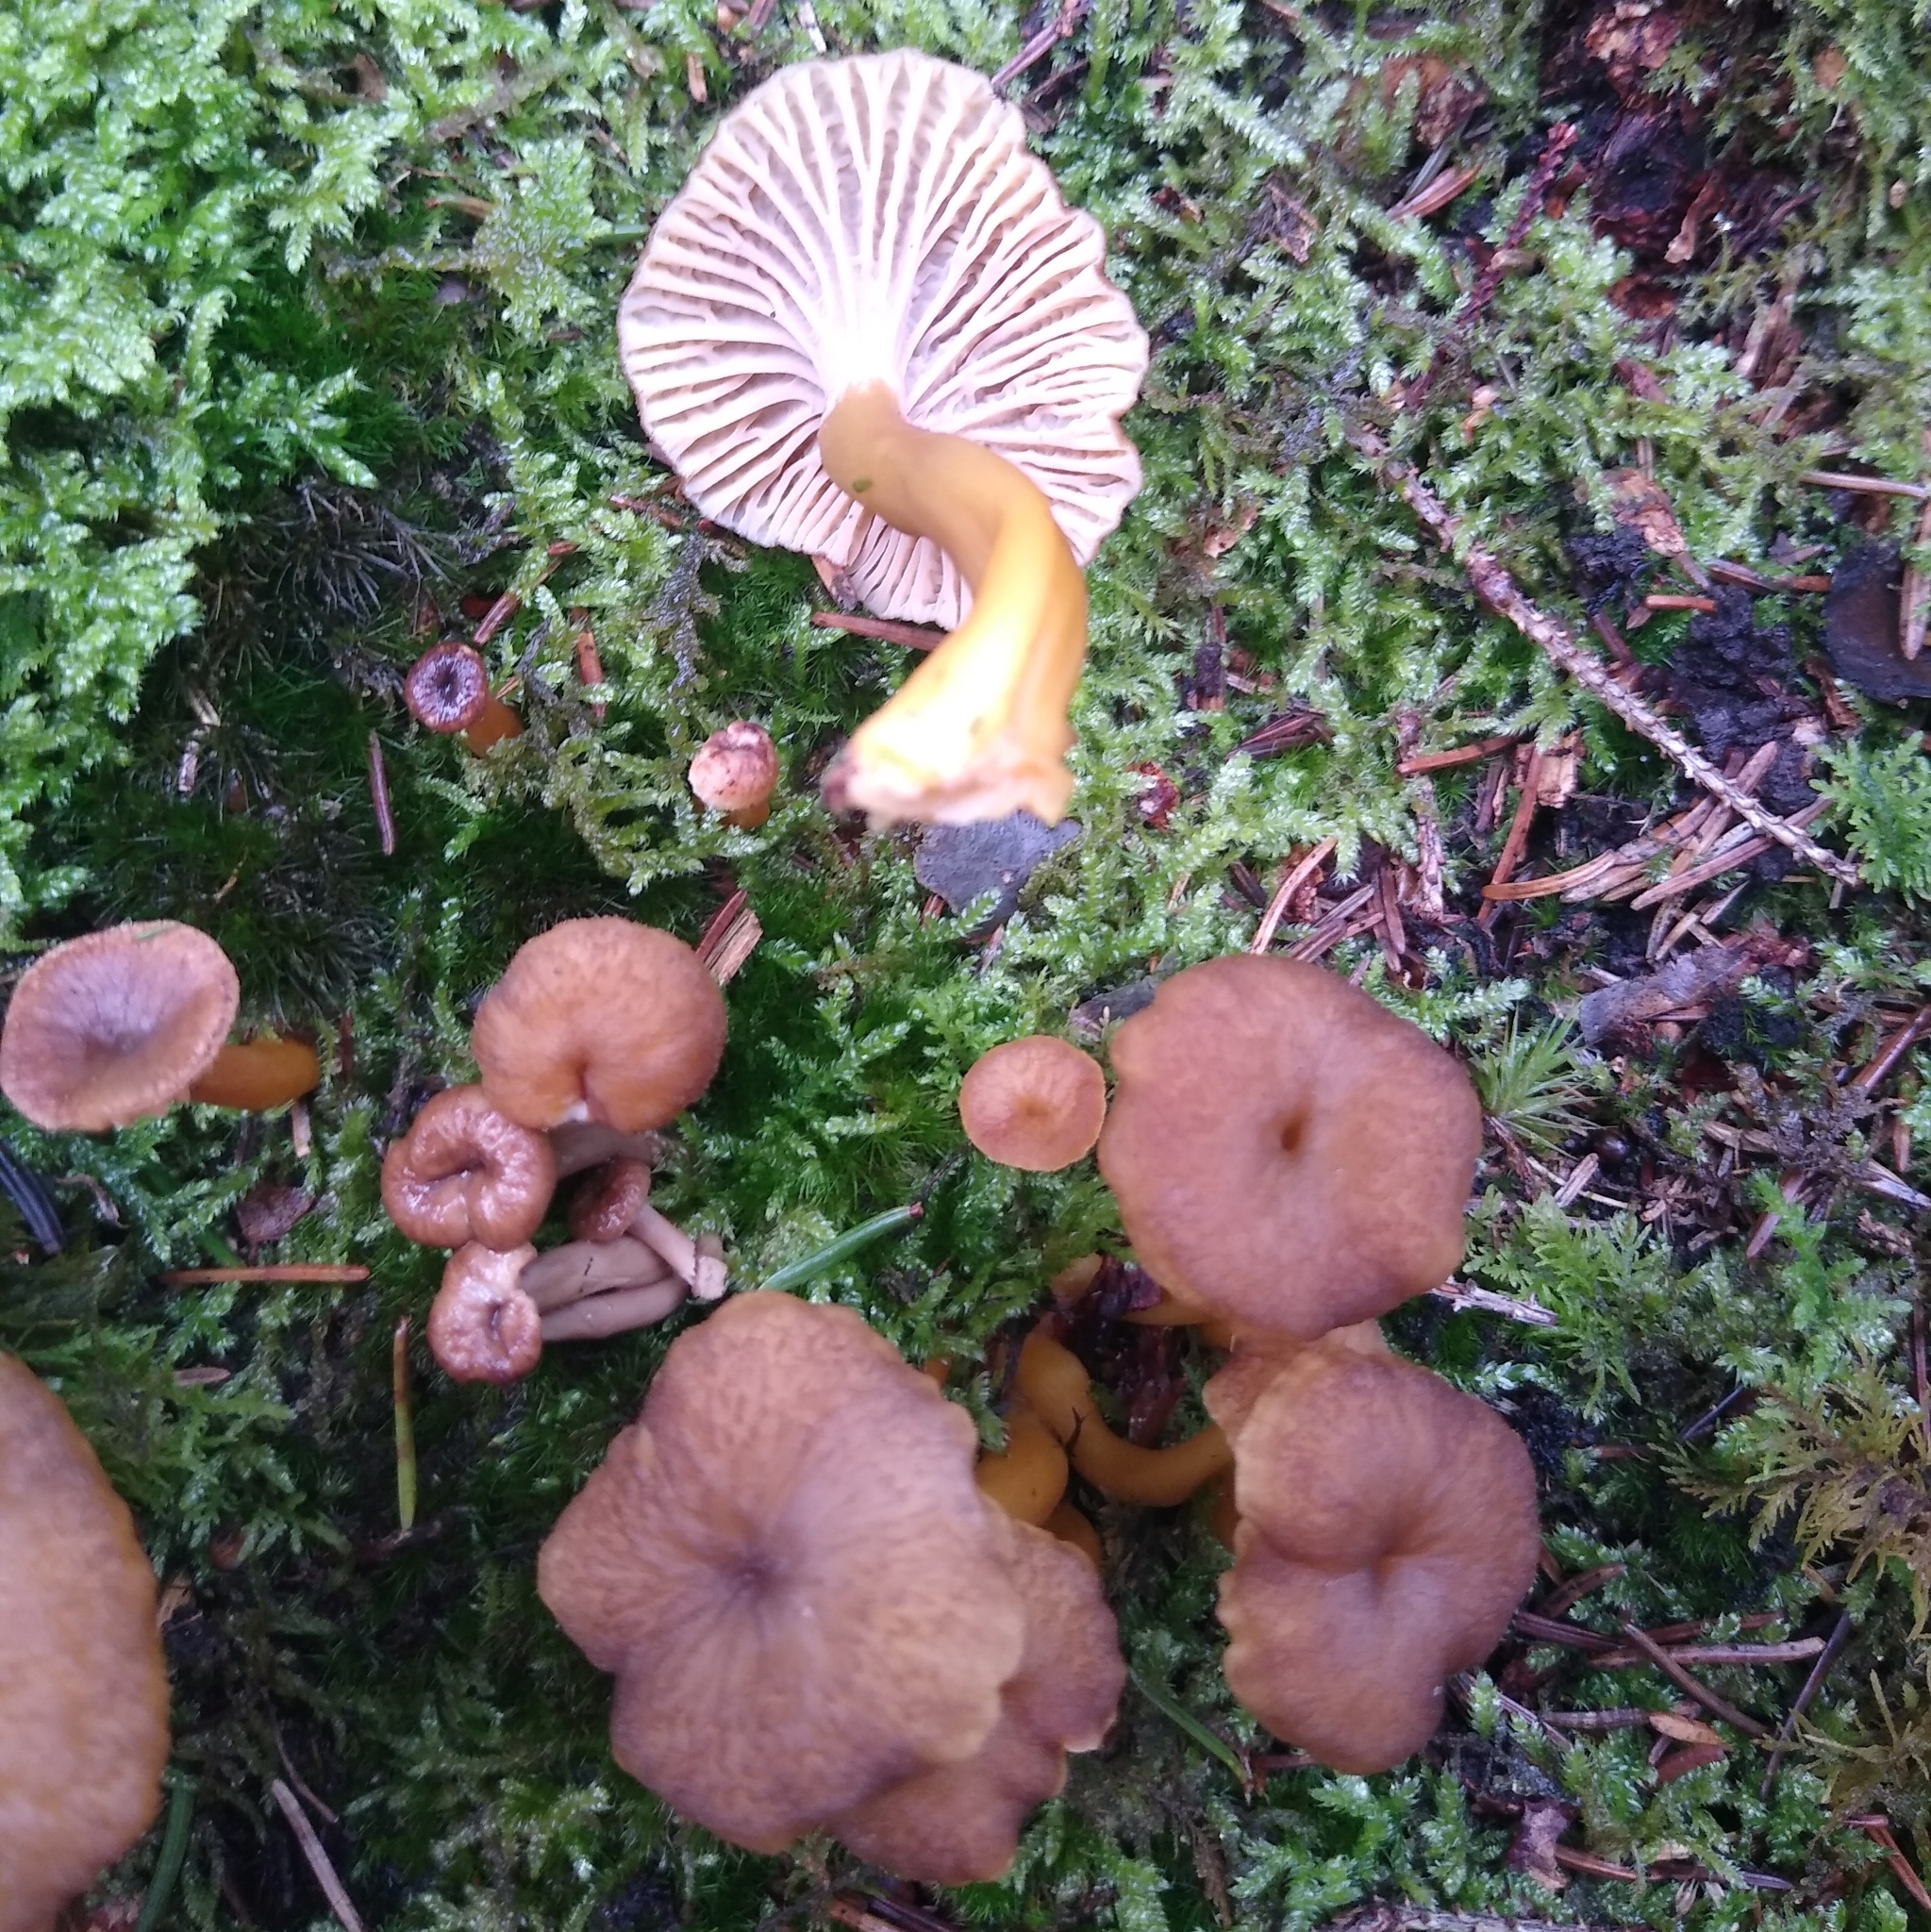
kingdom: Fungi
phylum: Basidiomycota
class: Agaricomycetes
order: Cantharellales
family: Hydnaceae
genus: Craterellus
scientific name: Craterellus tubaeformis
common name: Yellowfoot
